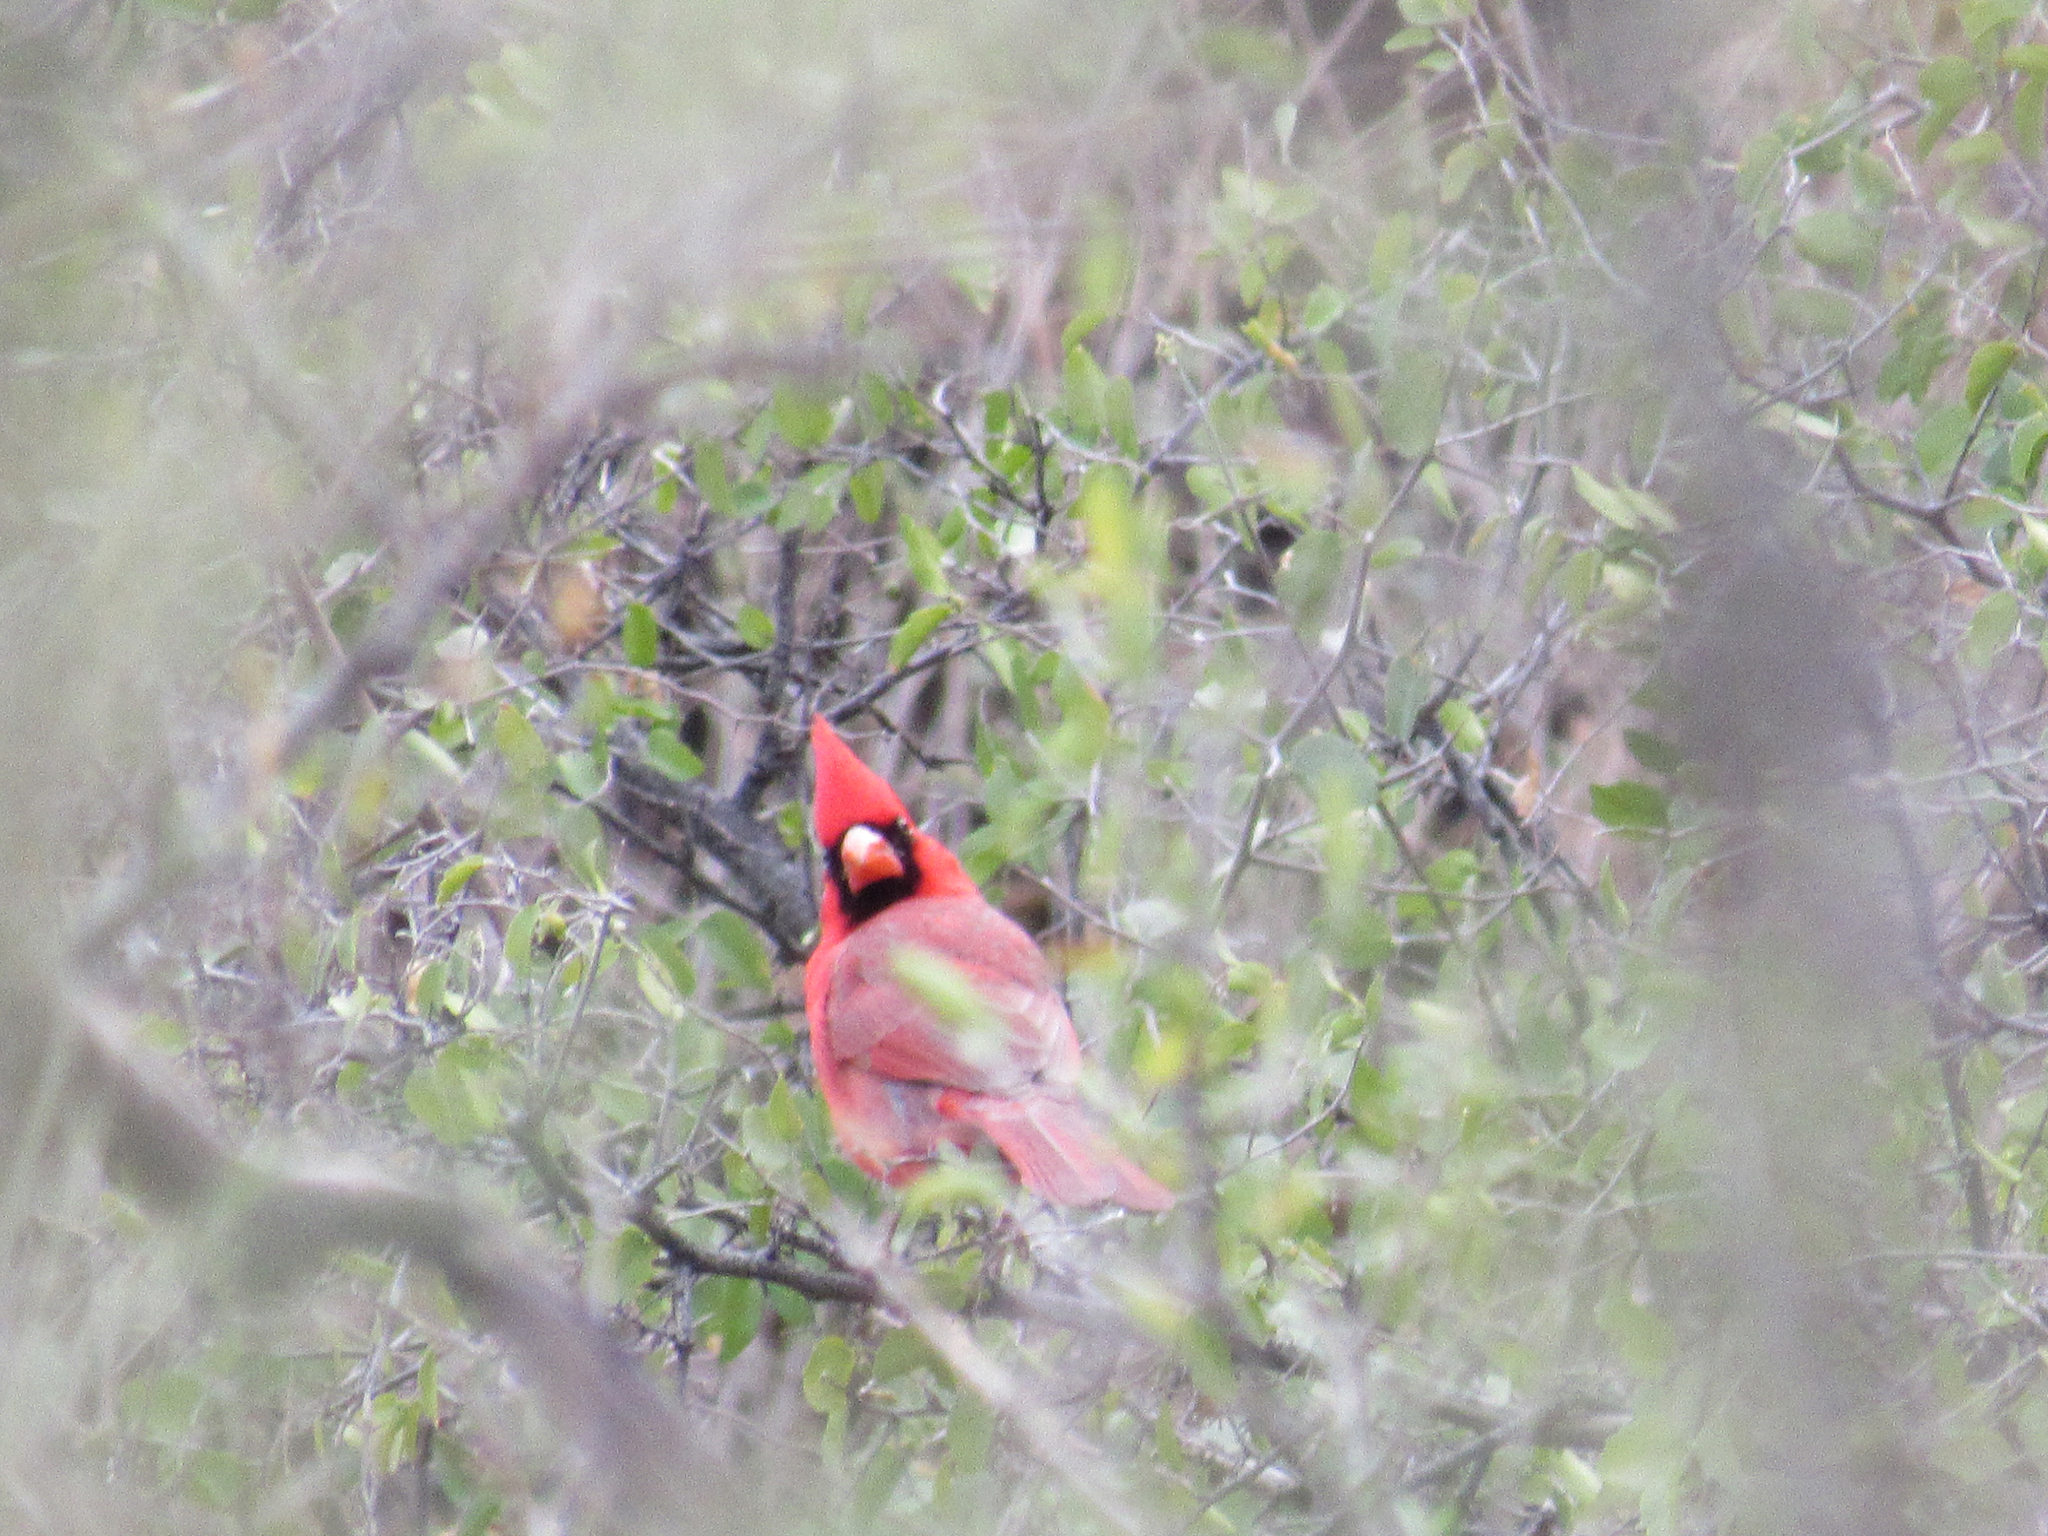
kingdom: Animalia
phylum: Chordata
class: Aves
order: Passeriformes
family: Cardinalidae
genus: Cardinalis
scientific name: Cardinalis cardinalis
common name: Northern cardinal
